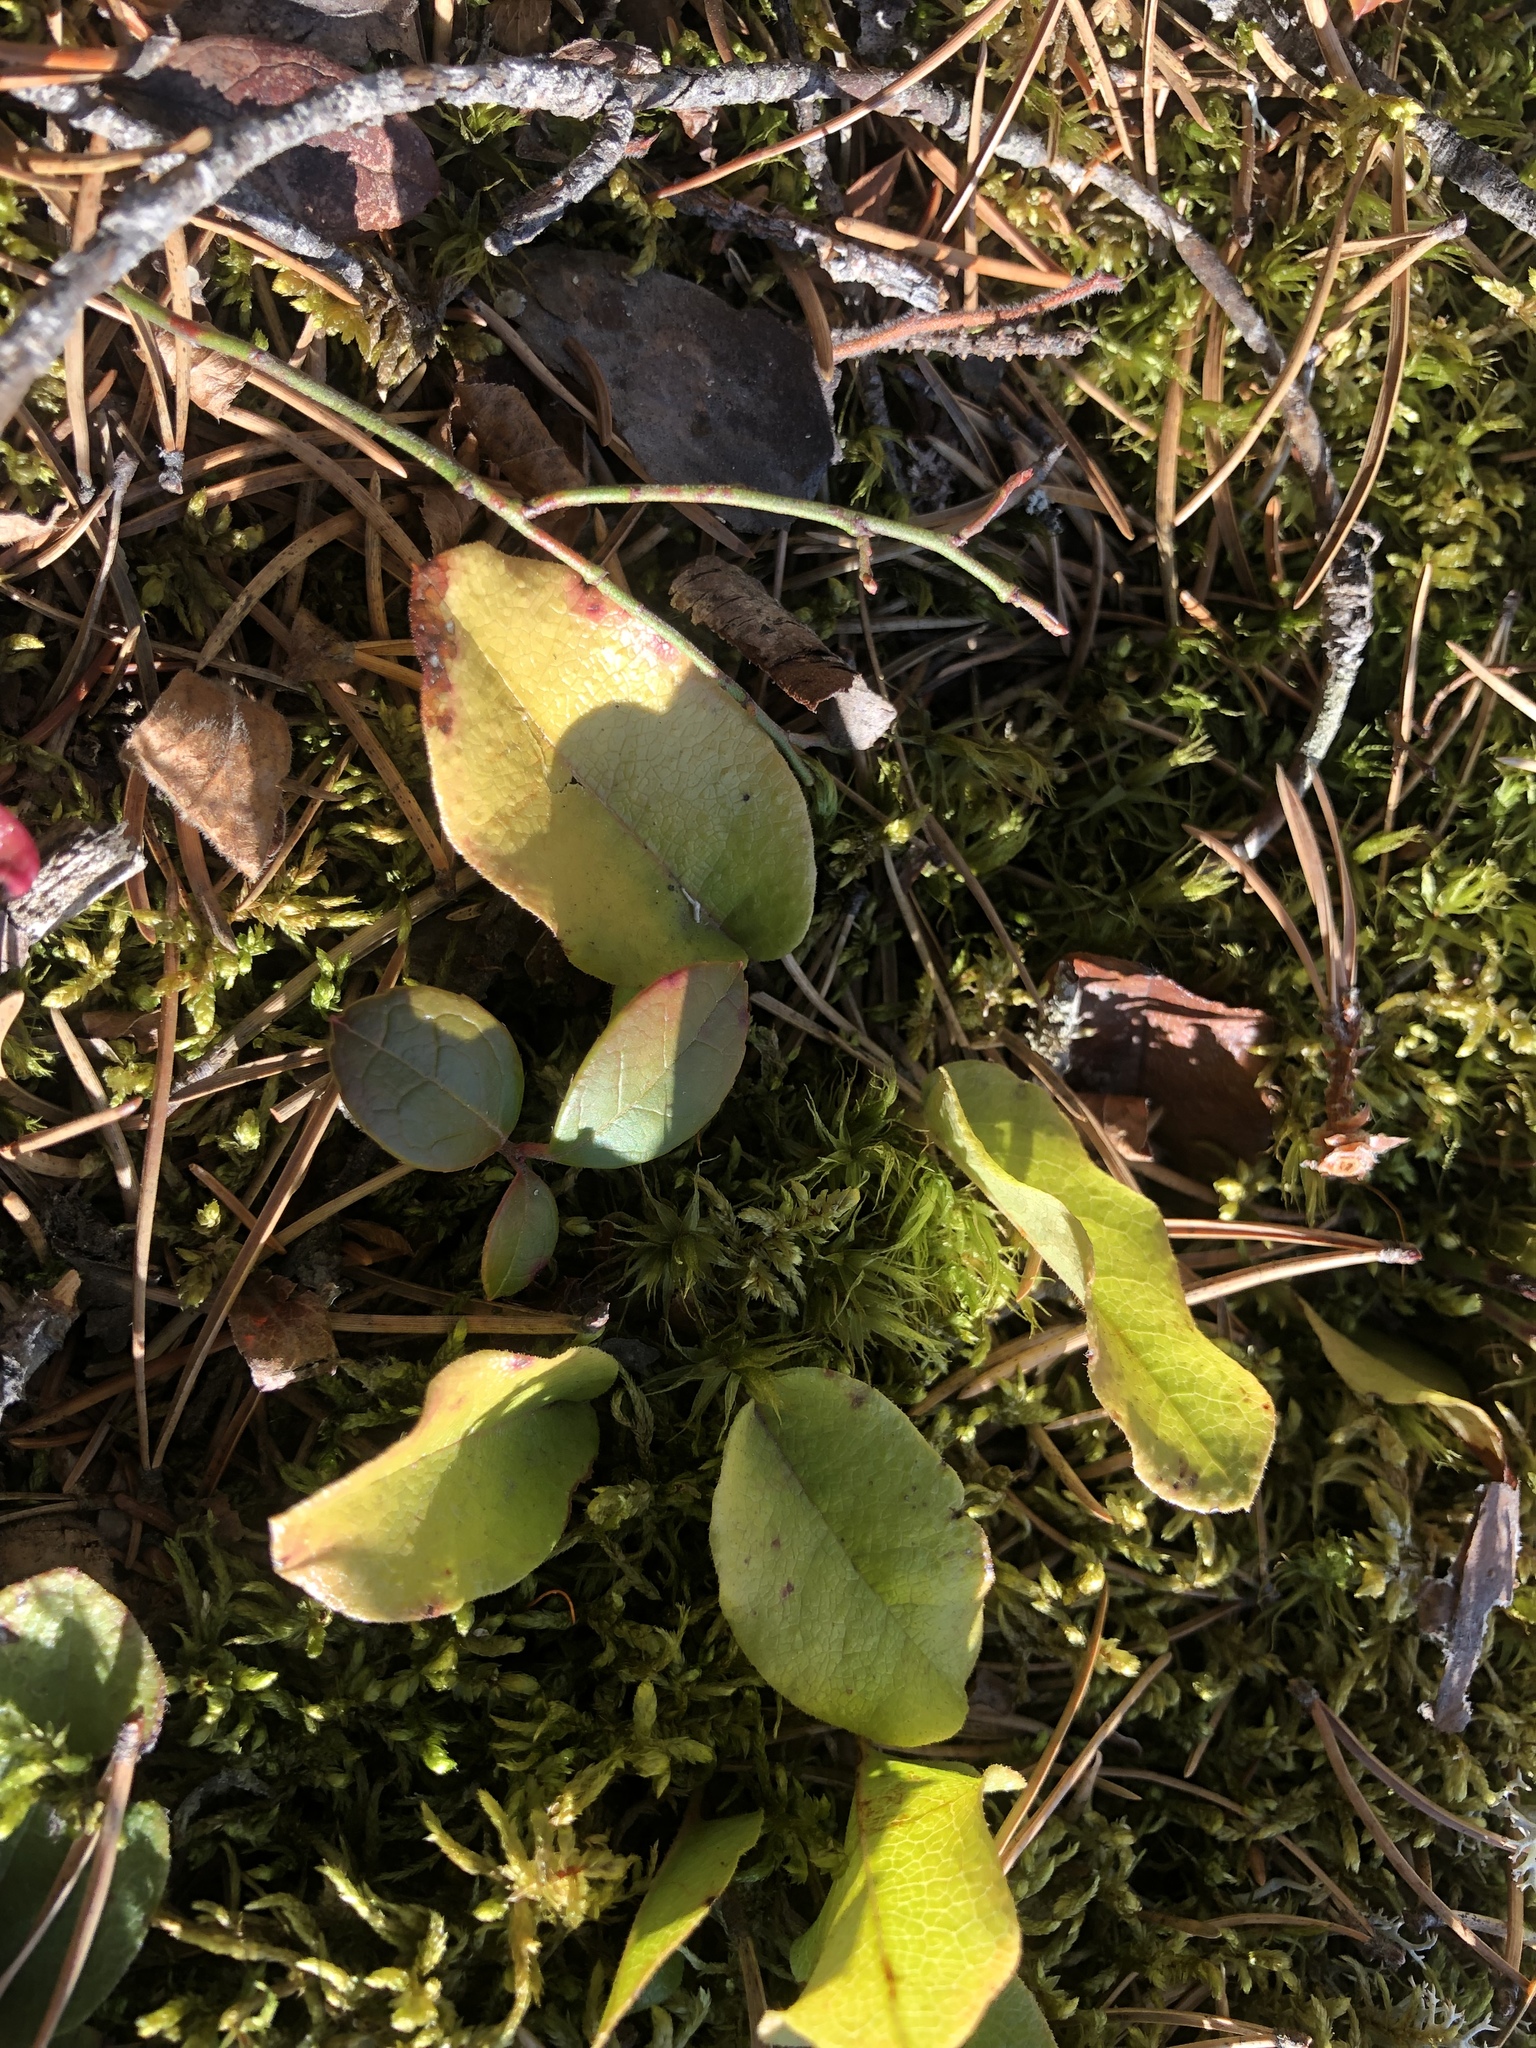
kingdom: Plantae
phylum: Tracheophyta
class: Magnoliopsida
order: Ericales
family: Ericaceae
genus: Epigaea
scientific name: Epigaea repens
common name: Gravelroot
